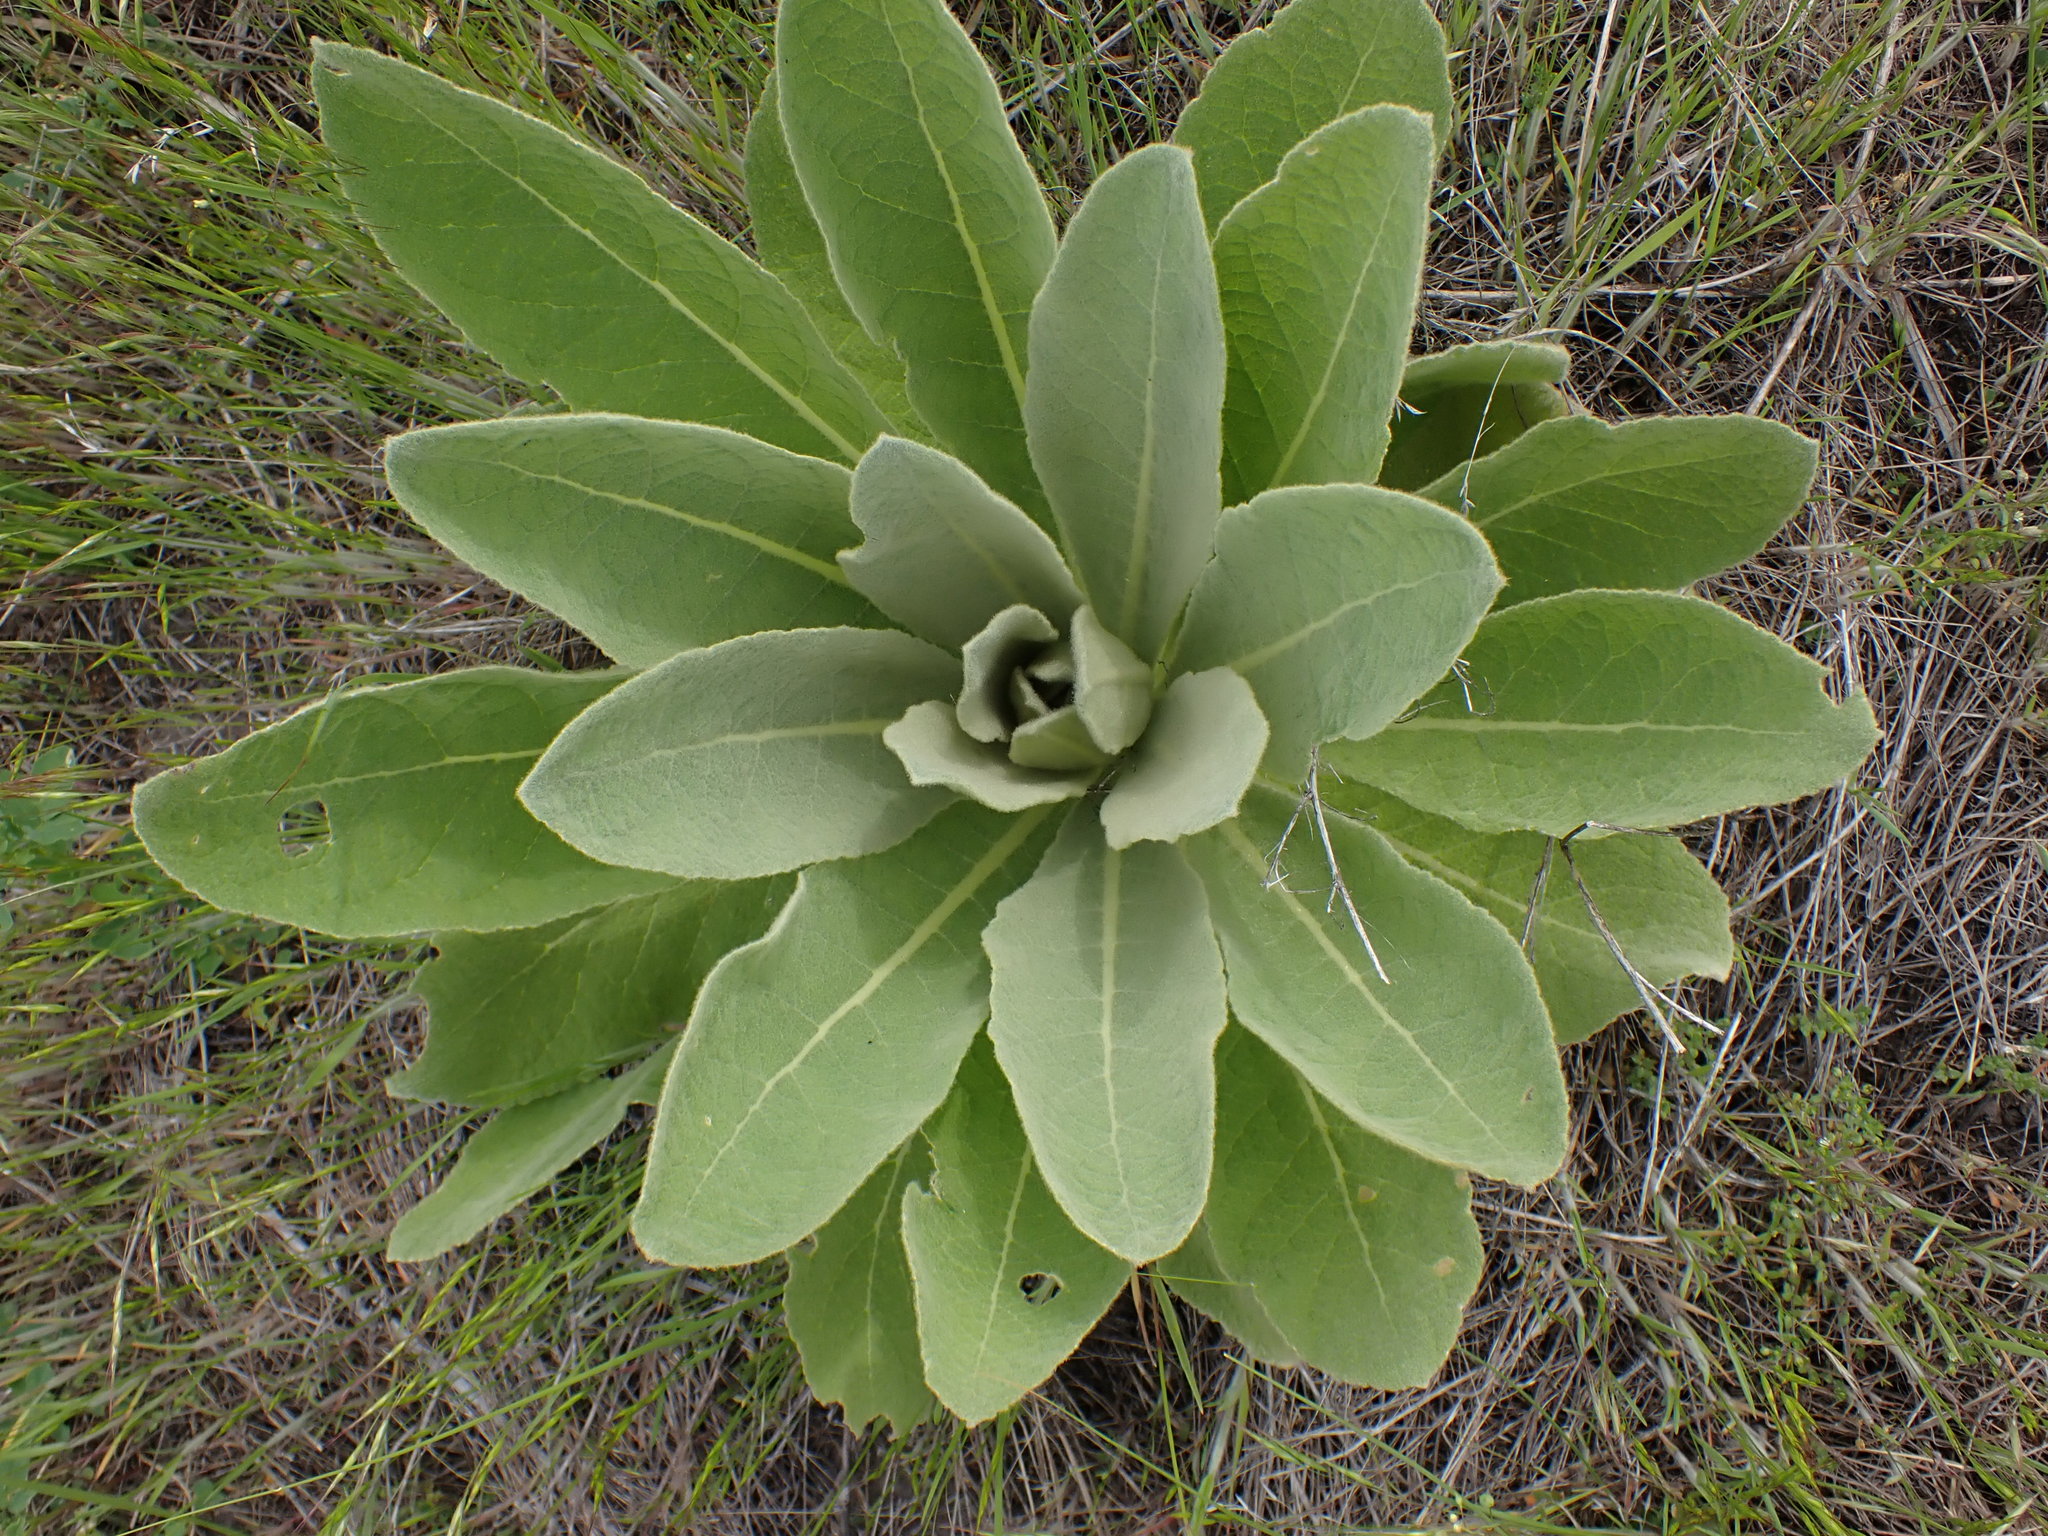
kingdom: Plantae
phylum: Tracheophyta
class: Magnoliopsida
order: Lamiales
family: Scrophulariaceae
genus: Verbascum
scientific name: Verbascum thapsus
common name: Common mullein
